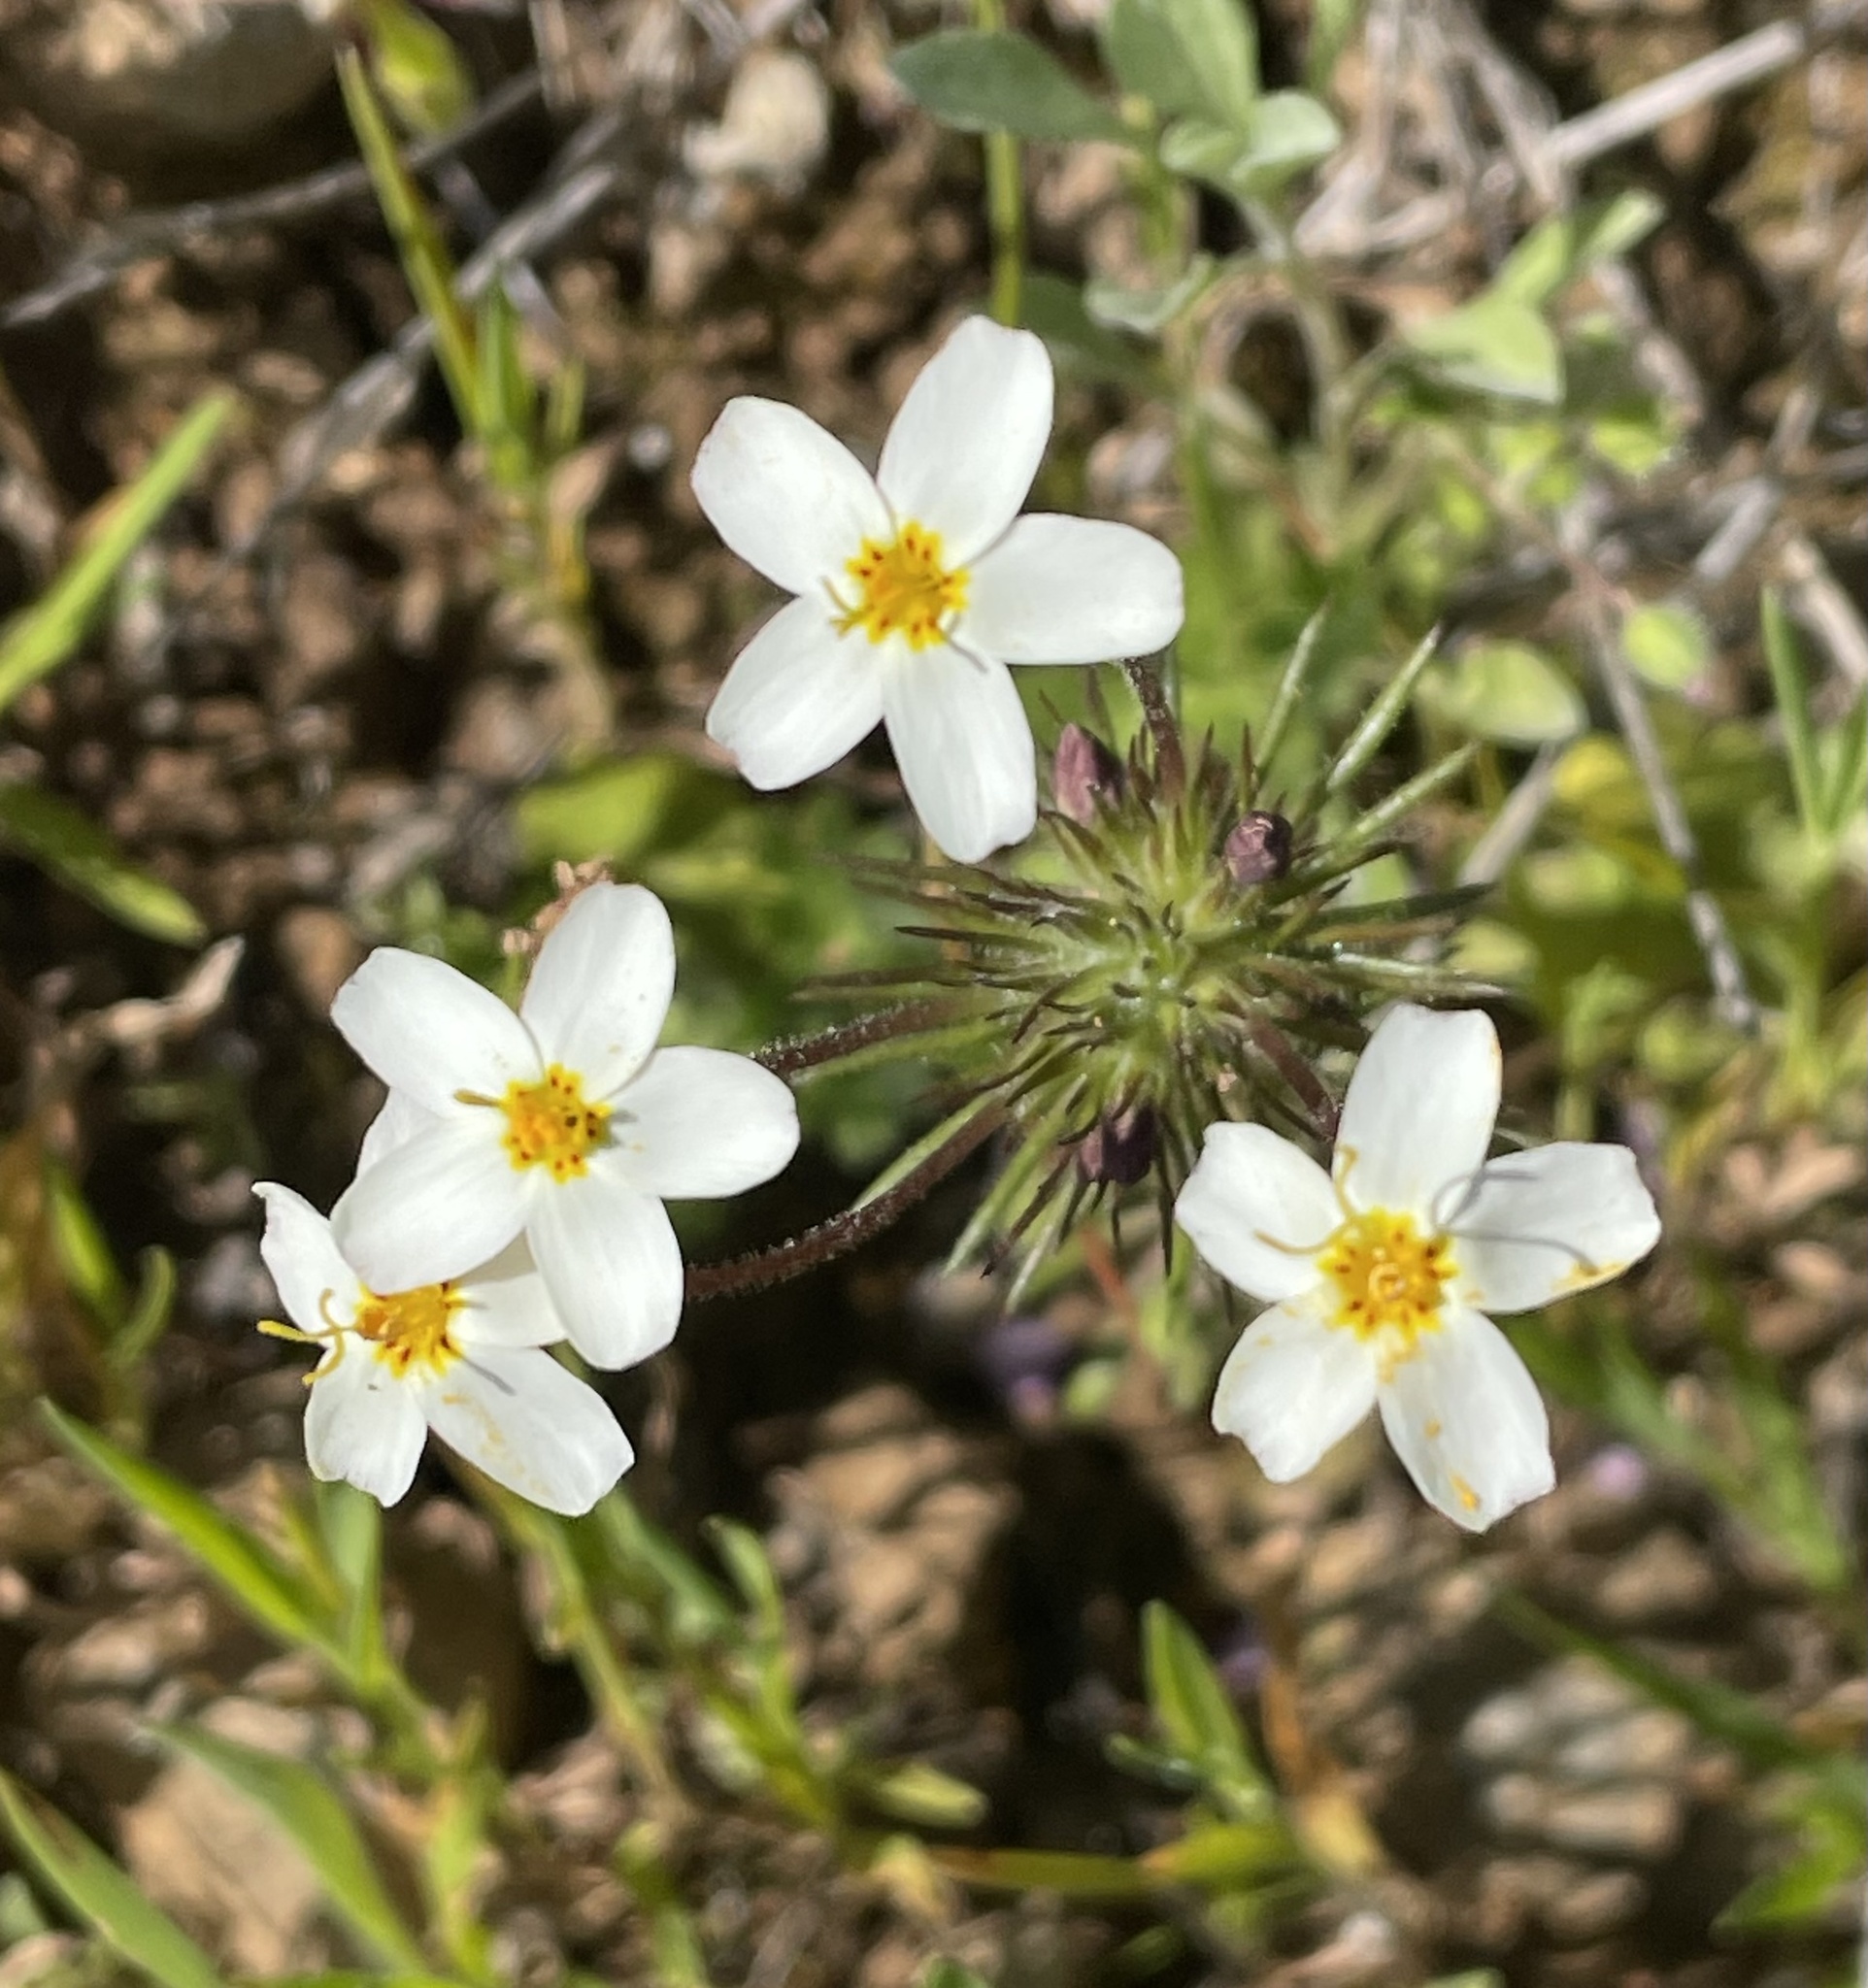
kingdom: Plantae
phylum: Tracheophyta
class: Magnoliopsida
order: Ericales
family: Polemoniaceae
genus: Leptosiphon
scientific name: Leptosiphon parviflorus
